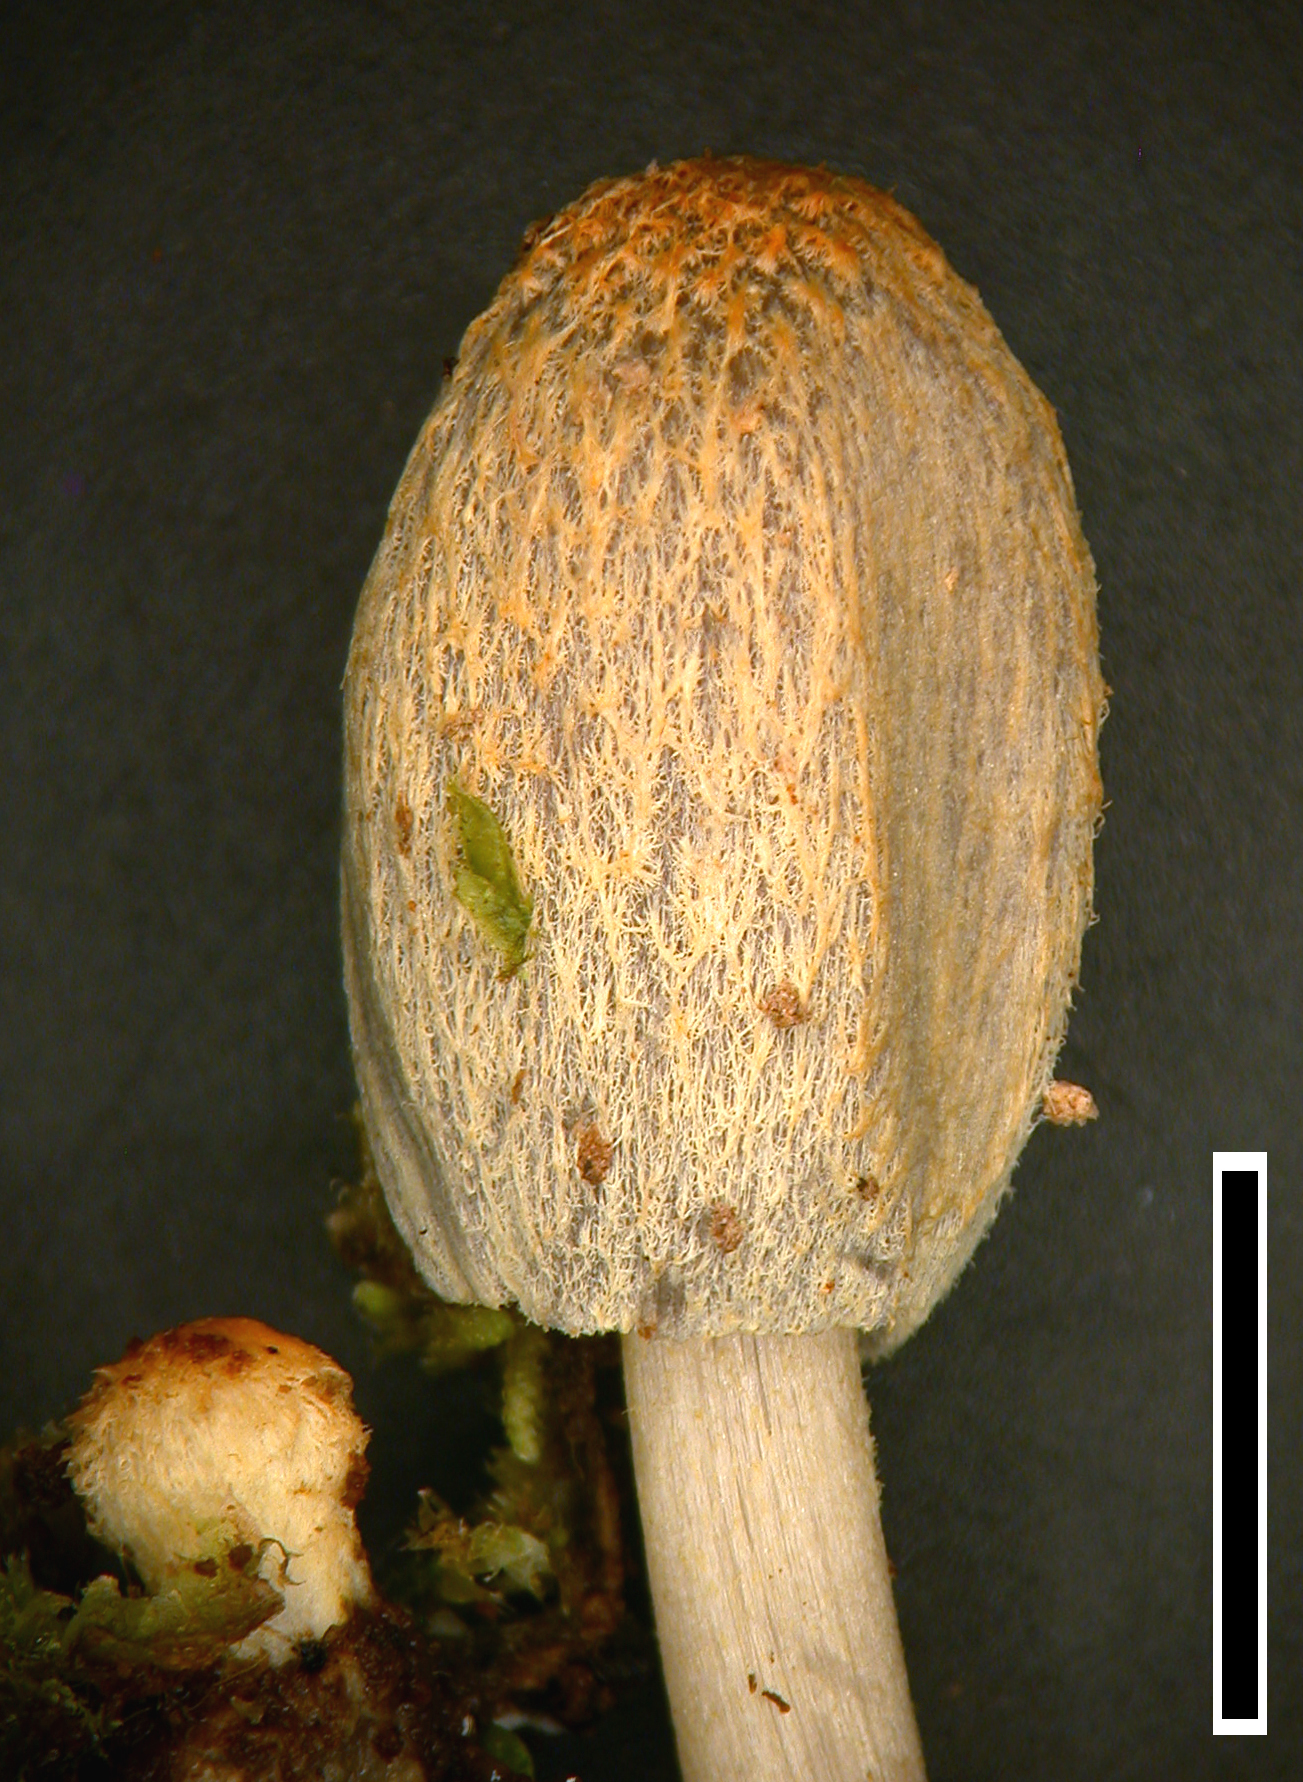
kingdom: Fungi
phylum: Basidiomycota
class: Agaricomycetes
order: Agaricales
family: Psathyrellaceae
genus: Coprinopsis
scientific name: Coprinopsis ochraceolanata
